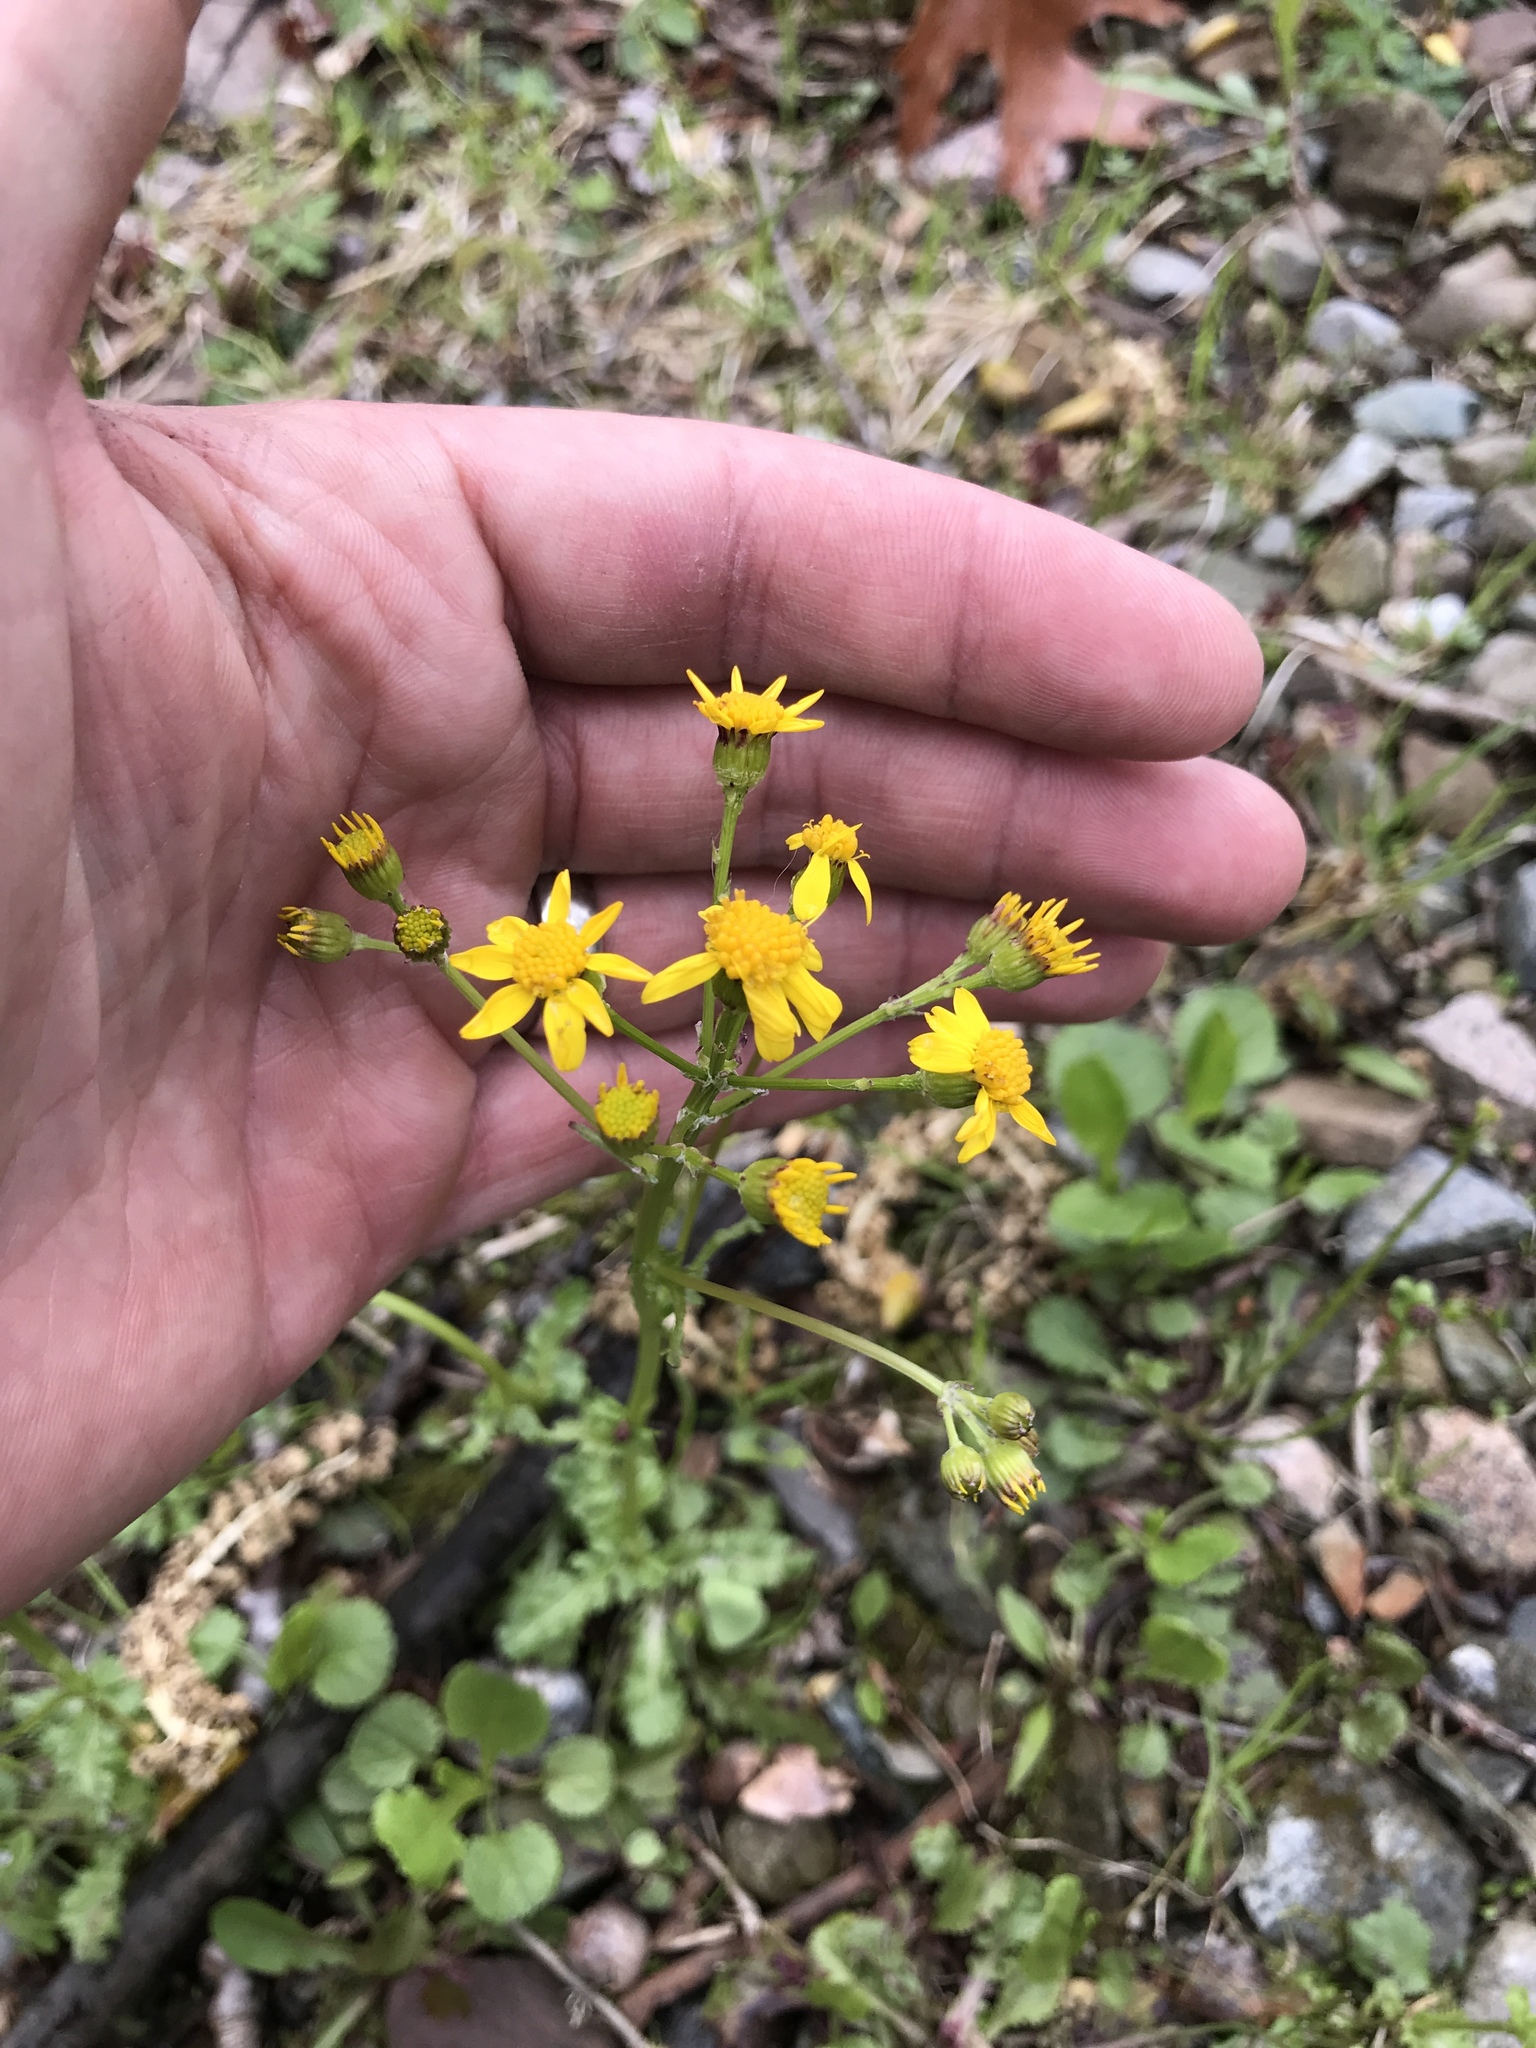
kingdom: Plantae
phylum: Tracheophyta
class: Magnoliopsida
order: Asterales
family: Asteraceae
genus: Packera
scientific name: Packera aurea
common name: Golden groundsel
